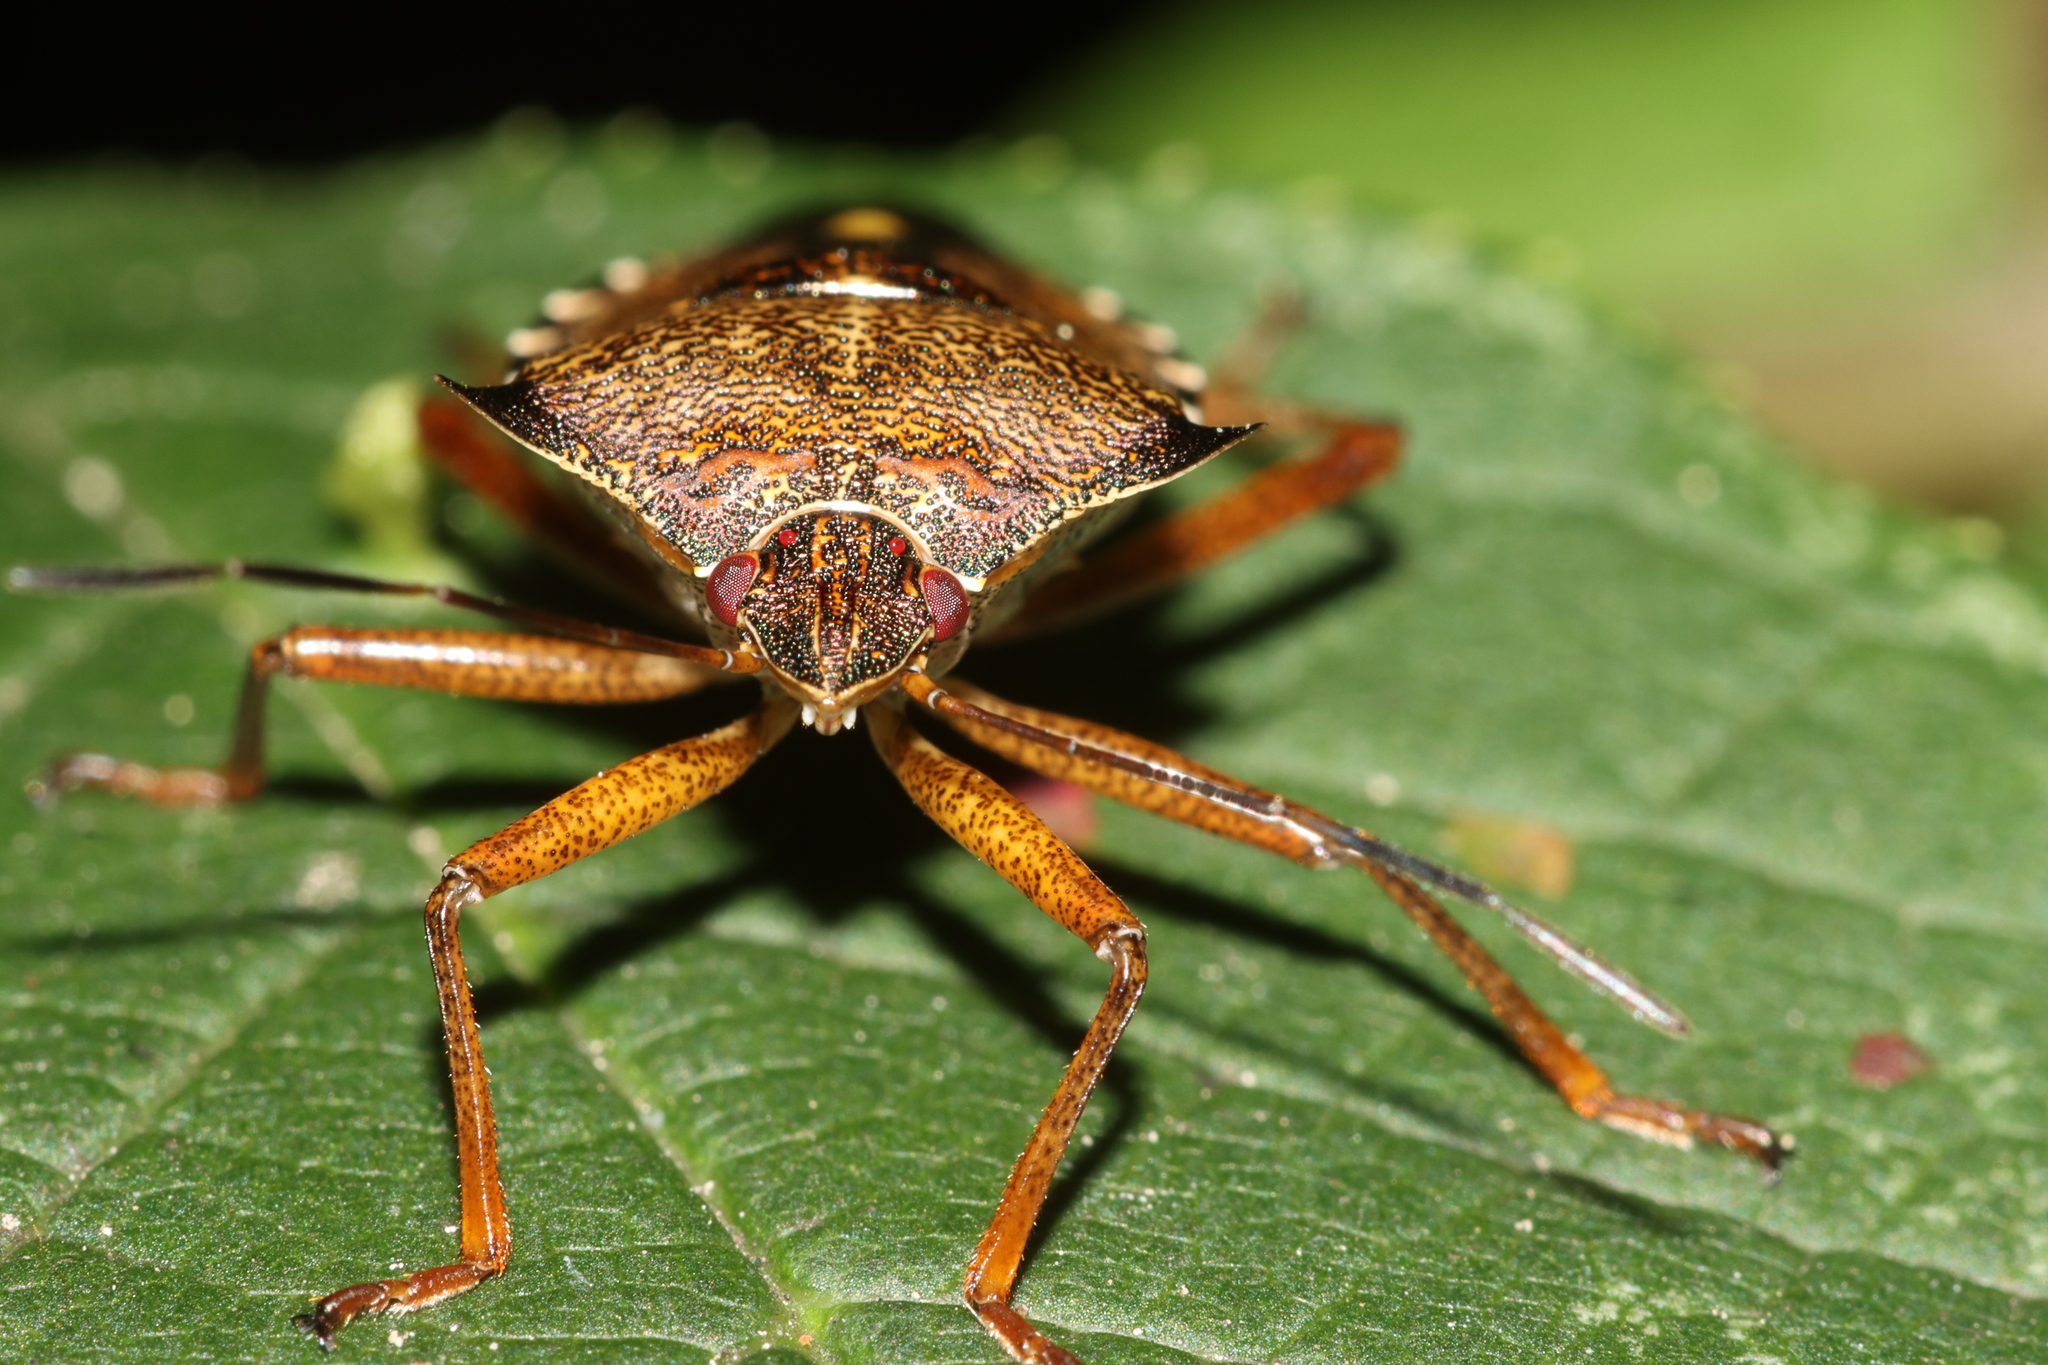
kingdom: Animalia
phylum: Arthropoda
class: Insecta
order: Hemiptera
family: Pentatomidae
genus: Pentatoma
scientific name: Pentatoma rufipes
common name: Forest bug
